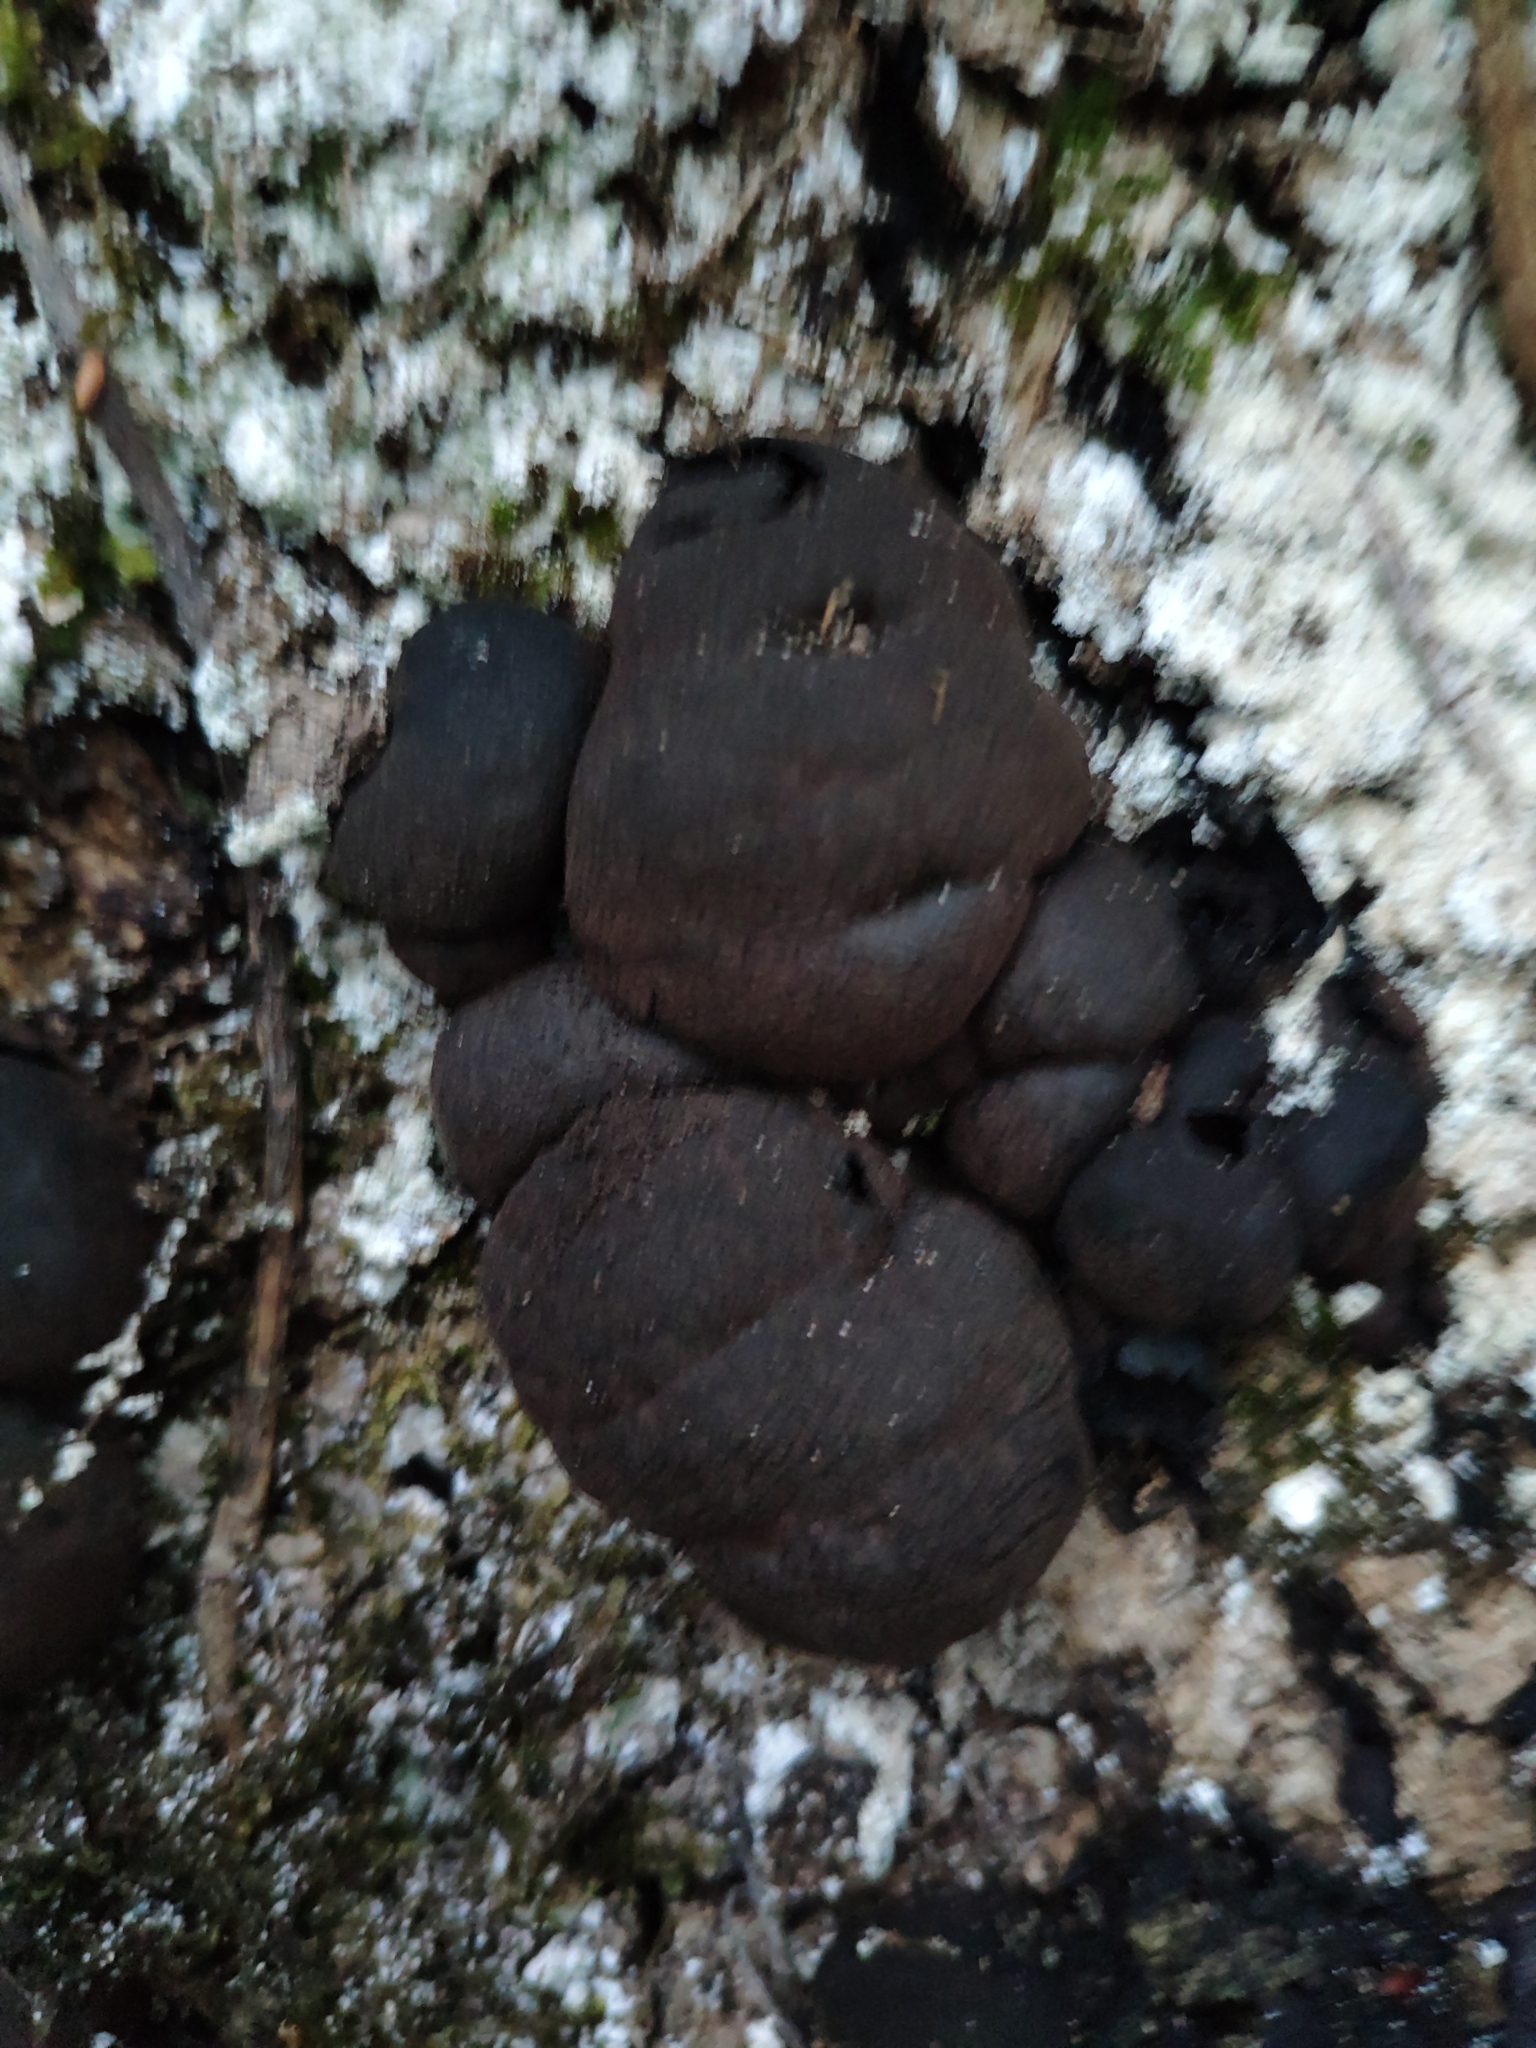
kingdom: Fungi
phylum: Ascomycota
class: Sordariomycetes
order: Xylariales
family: Hypoxylaceae
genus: Daldinia
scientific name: Daldinia concentrica
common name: Cramp balls
